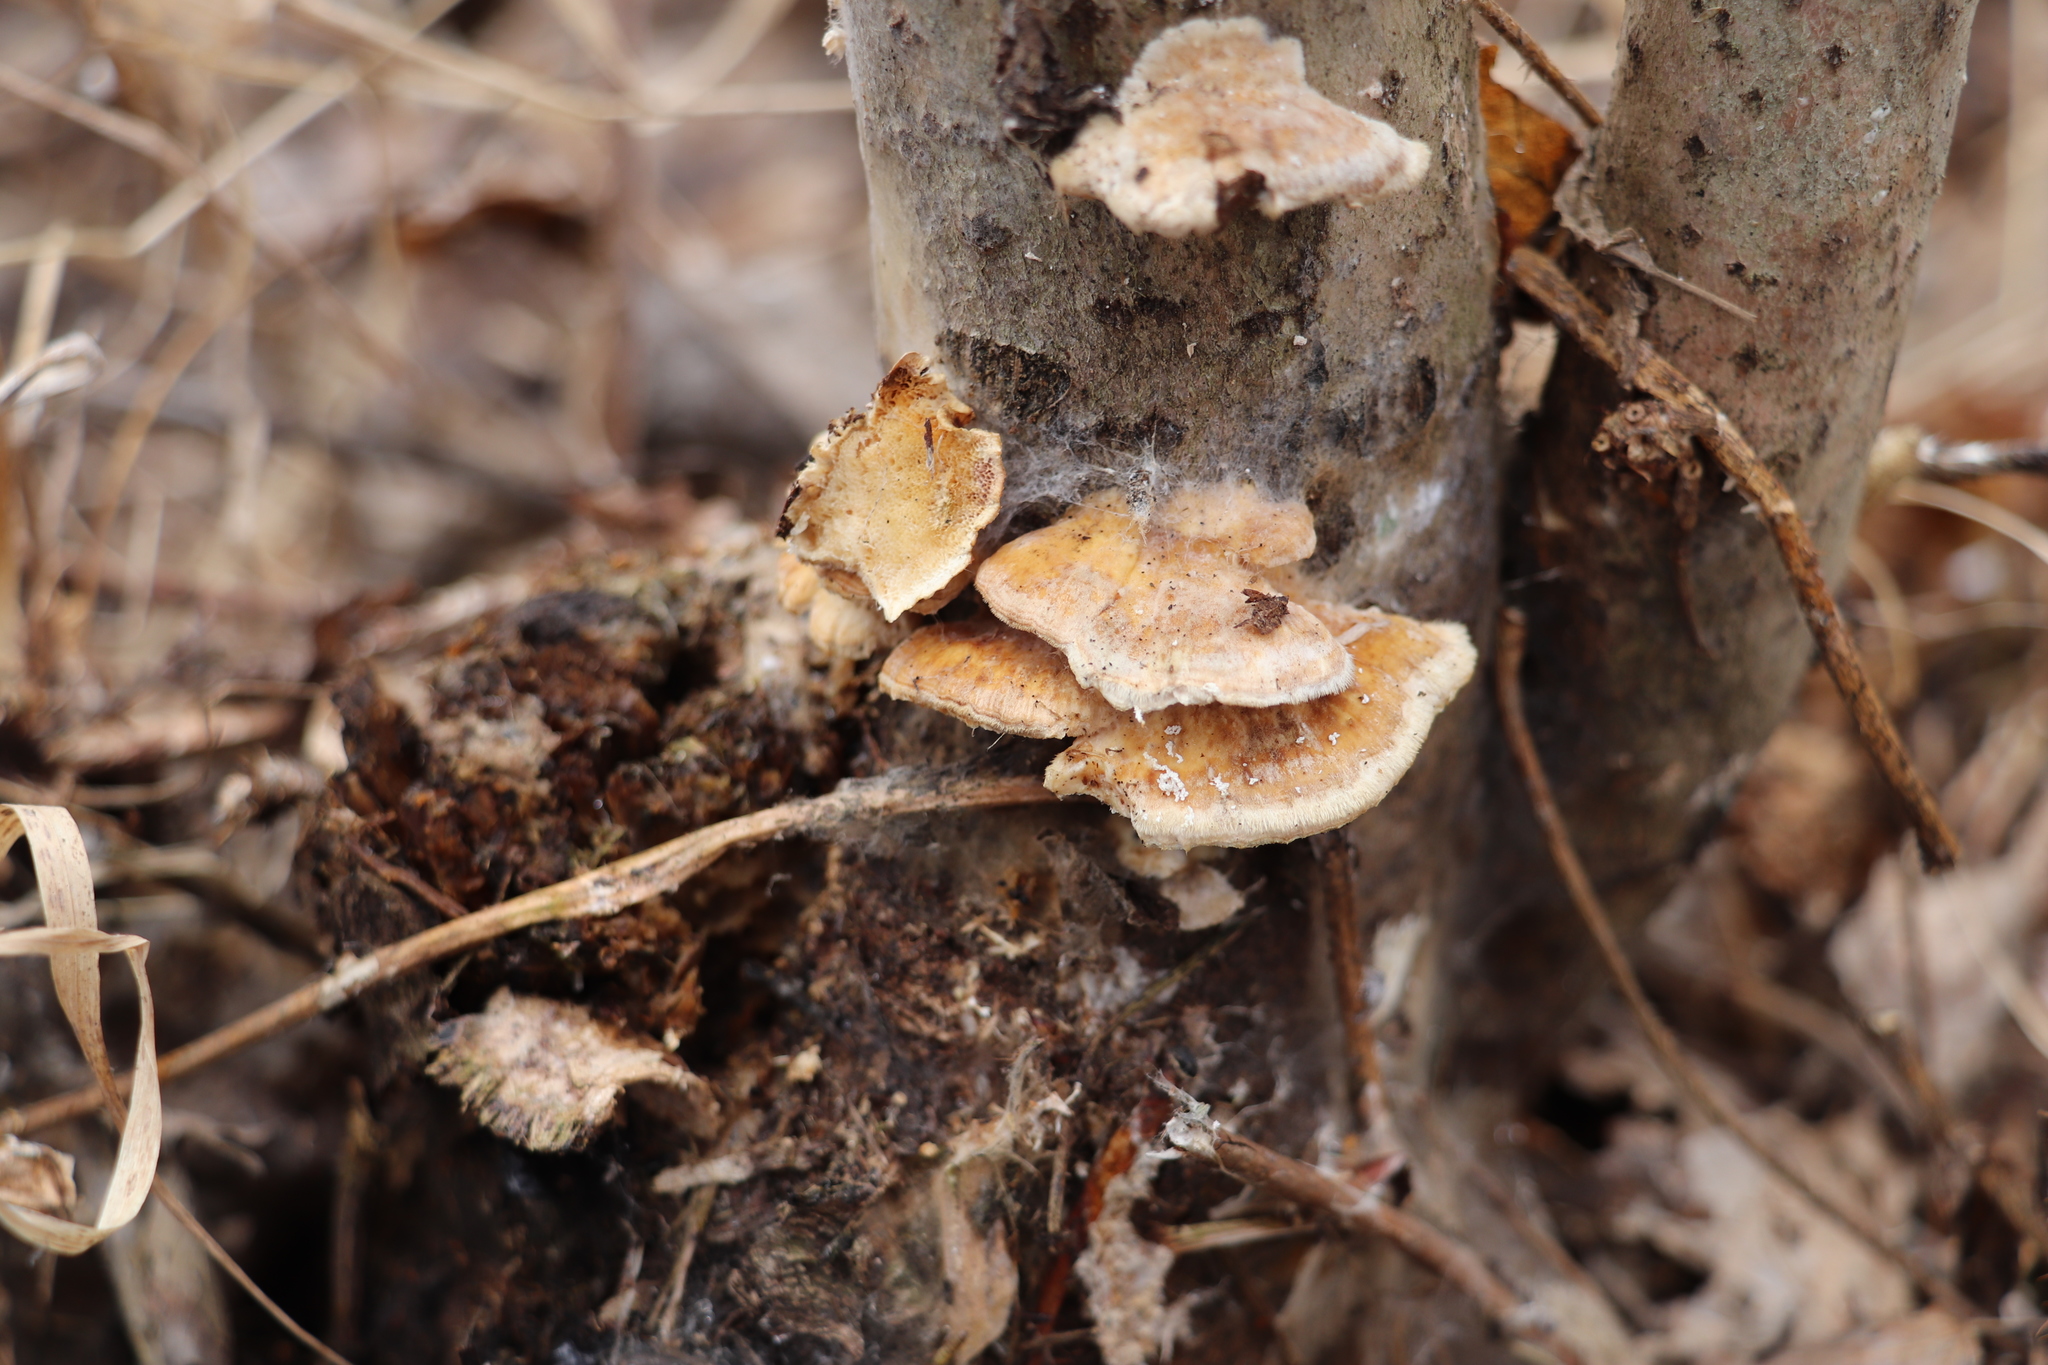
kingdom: Fungi
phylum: Basidiomycota
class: Agaricomycetes
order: Polyporales
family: Polyporaceae
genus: Trametes
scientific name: Trametes ochracea
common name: Ochre bracket
